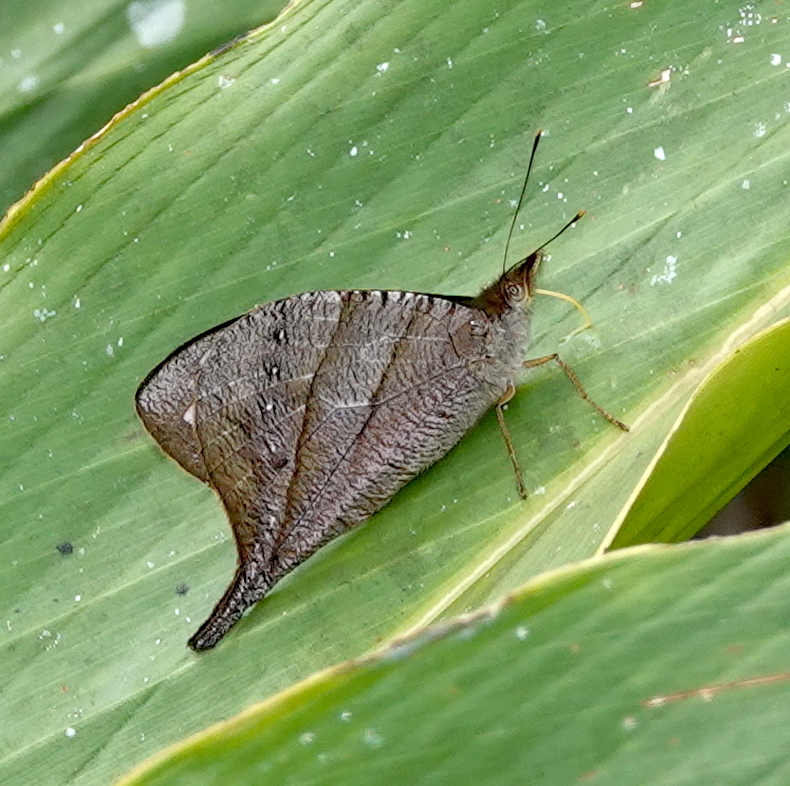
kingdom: Animalia
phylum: Arthropoda
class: Insecta
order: Lepidoptera
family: Nymphalidae
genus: Corades
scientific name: Corades enyo
